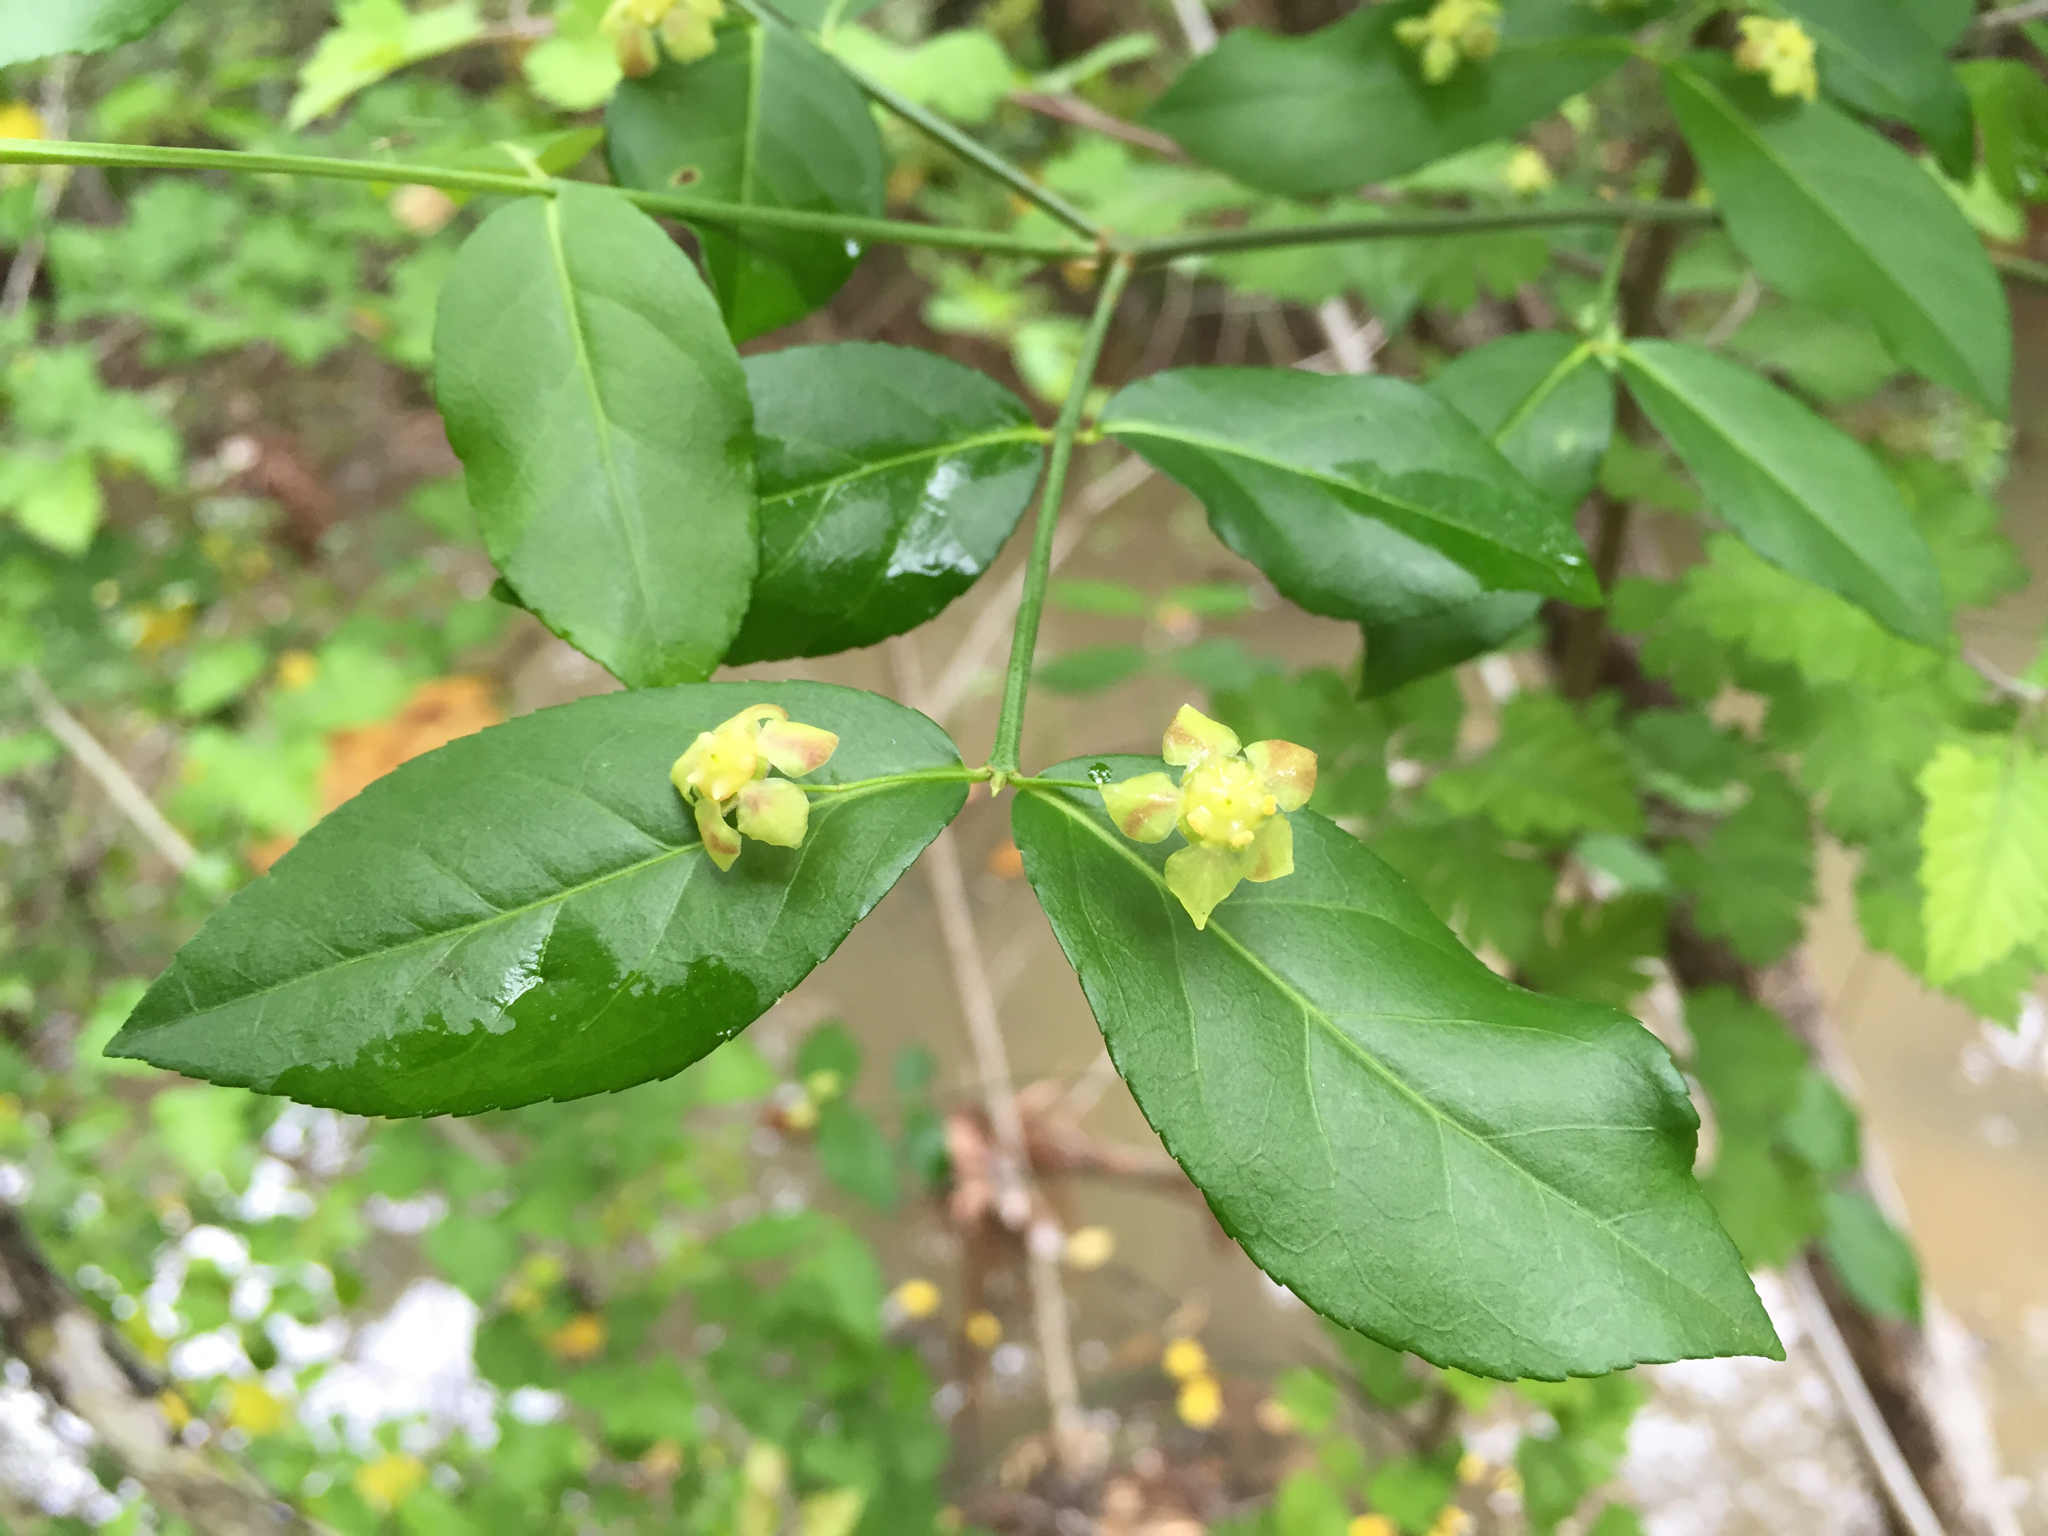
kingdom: Plantae
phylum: Tracheophyta
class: Magnoliopsida
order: Celastrales
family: Celastraceae
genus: Euonymus
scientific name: Euonymus americanus
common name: Bursting-heart
